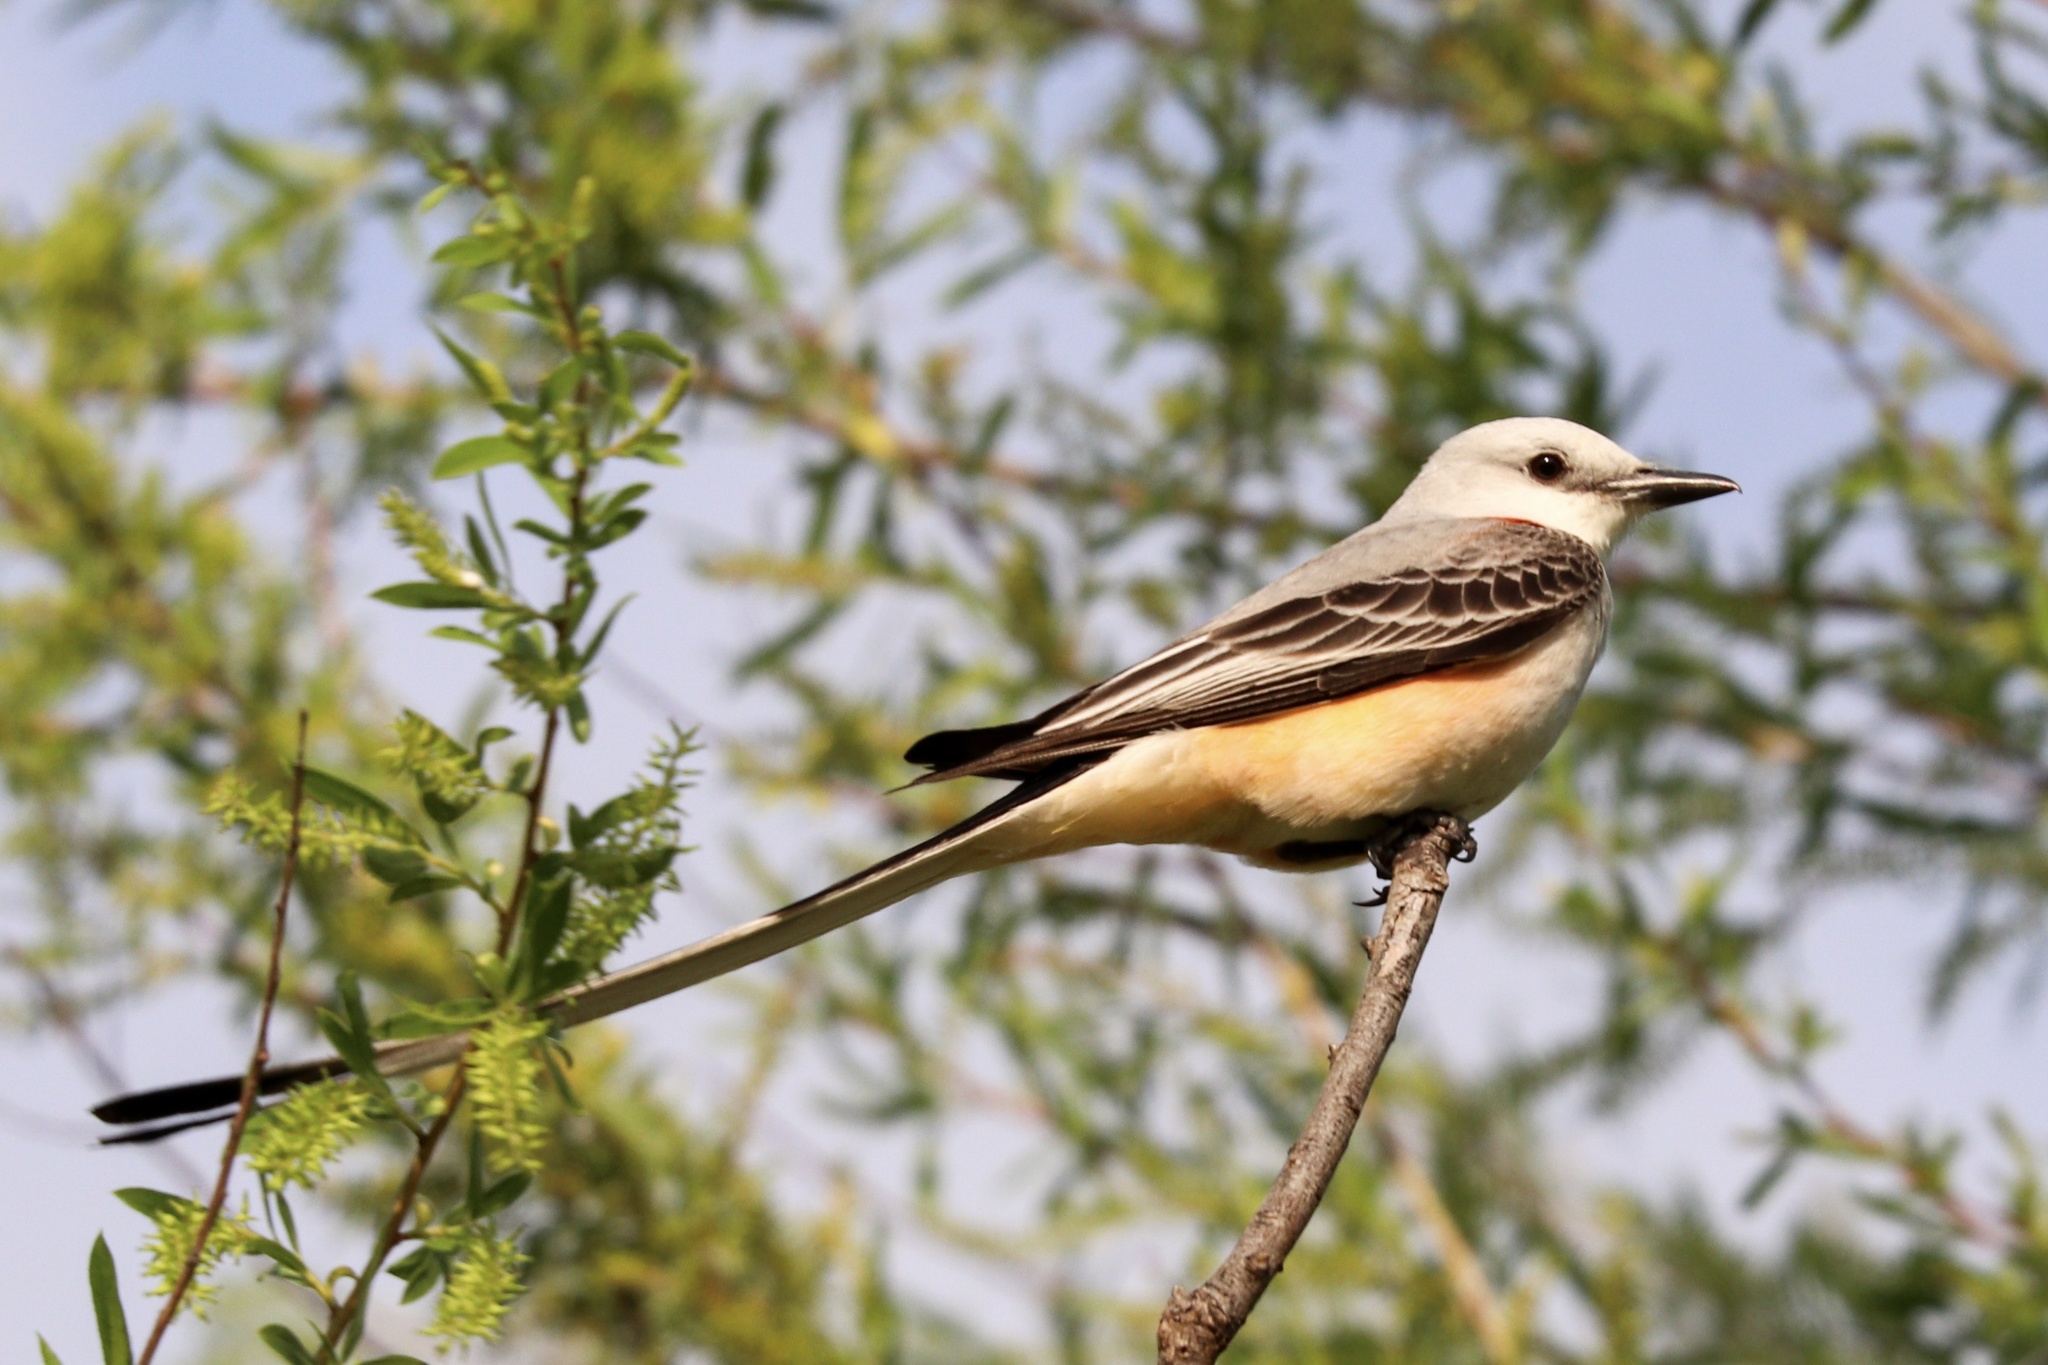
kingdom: Animalia
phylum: Chordata
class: Aves
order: Passeriformes
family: Tyrannidae
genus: Tyrannus
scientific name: Tyrannus forficatus
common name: Scissor-tailed flycatcher
